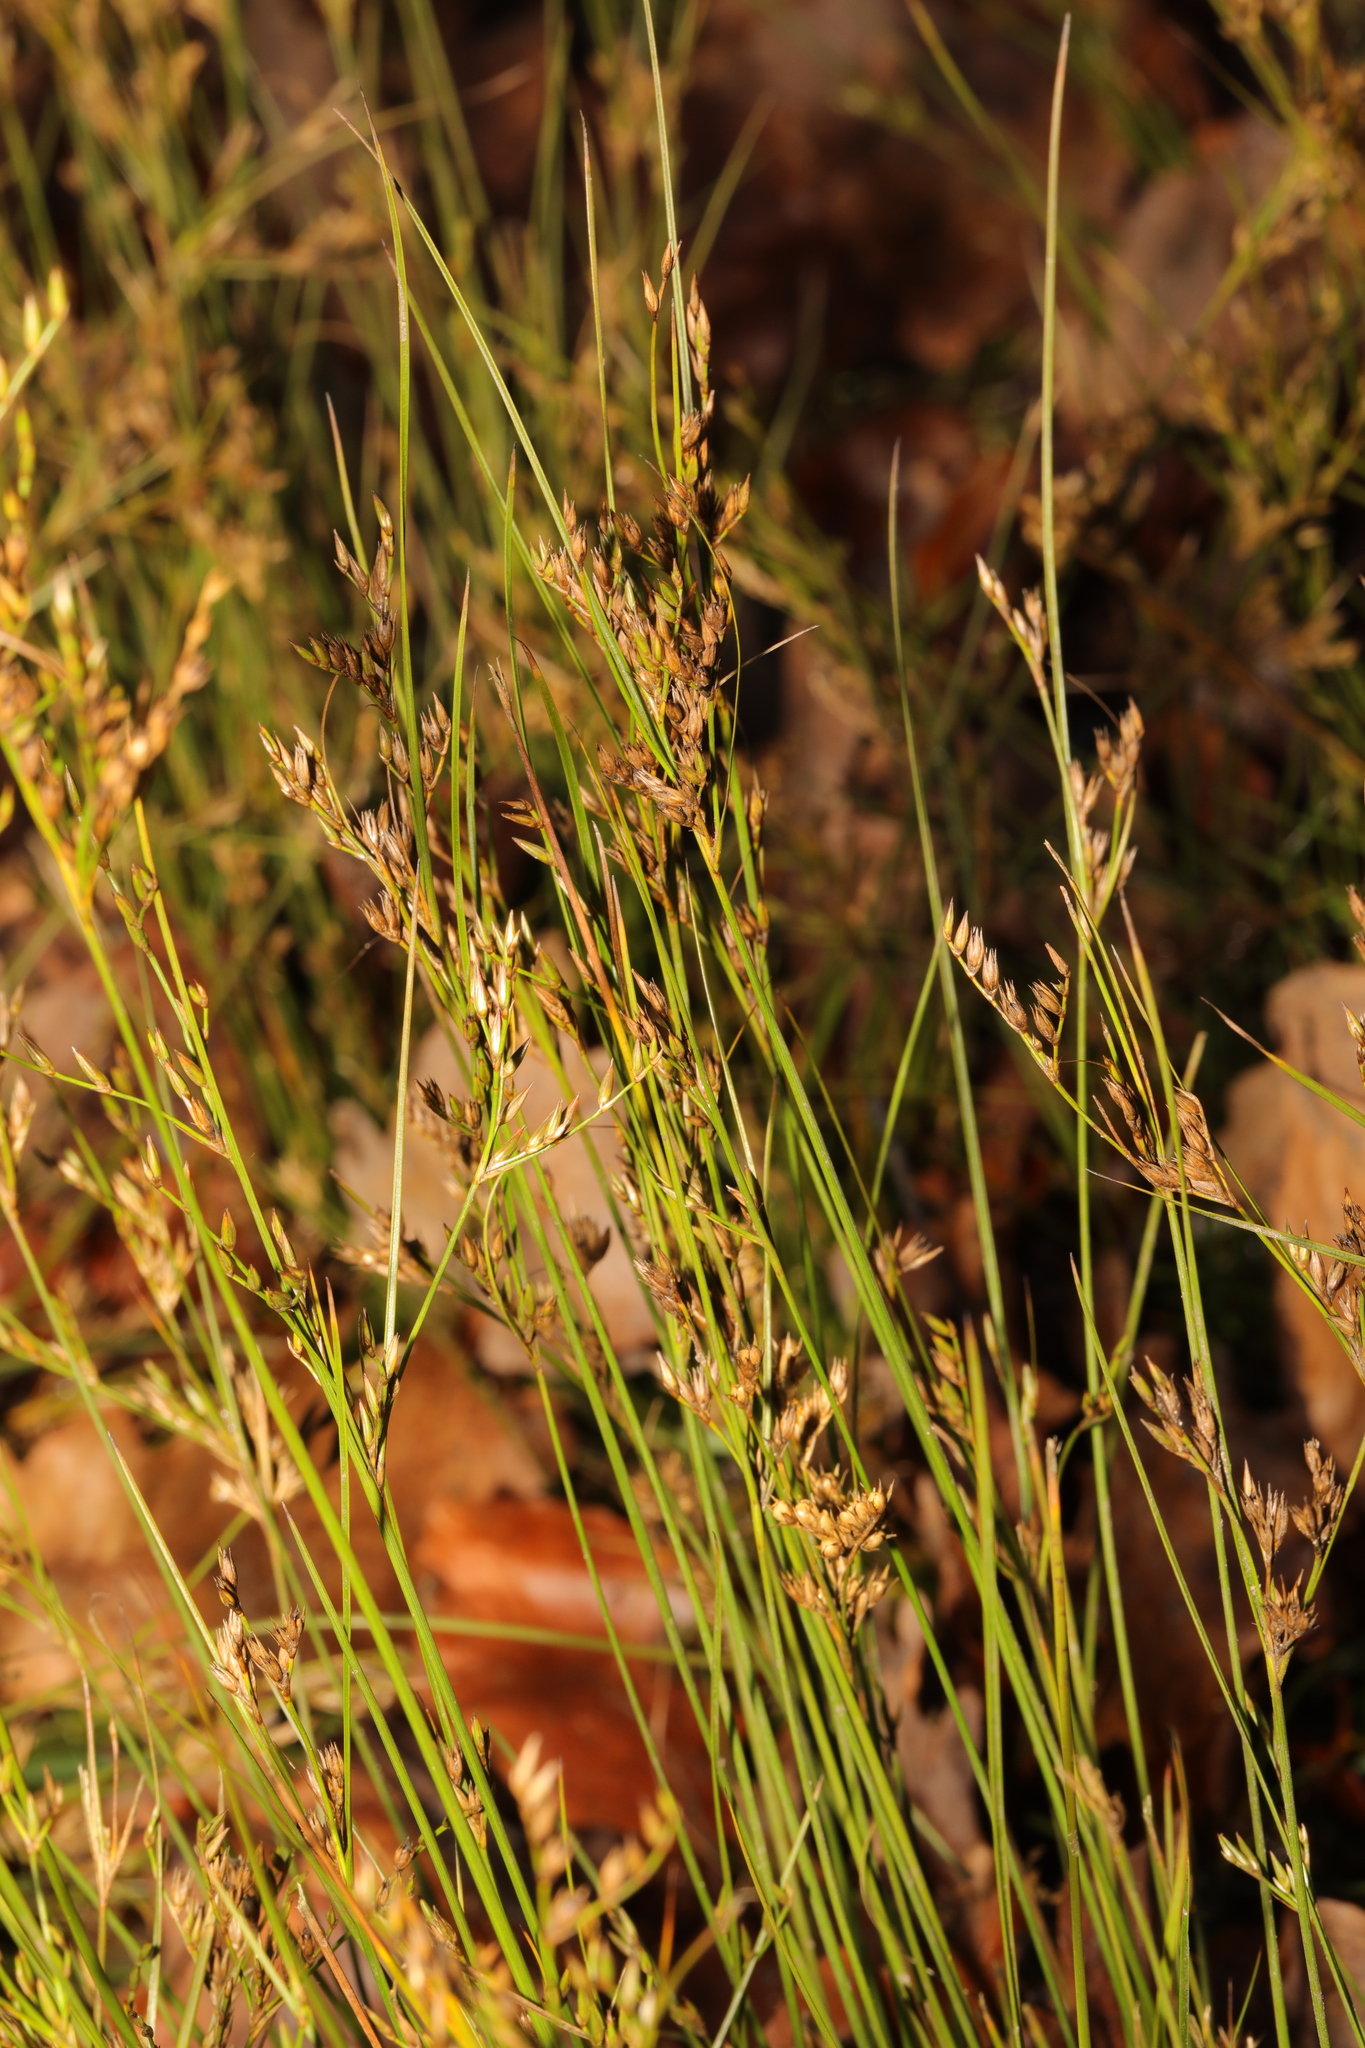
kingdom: Plantae
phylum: Tracheophyta
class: Liliopsida
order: Poales
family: Juncaceae
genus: Juncus
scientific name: Juncus tenuis
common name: Slender rush
